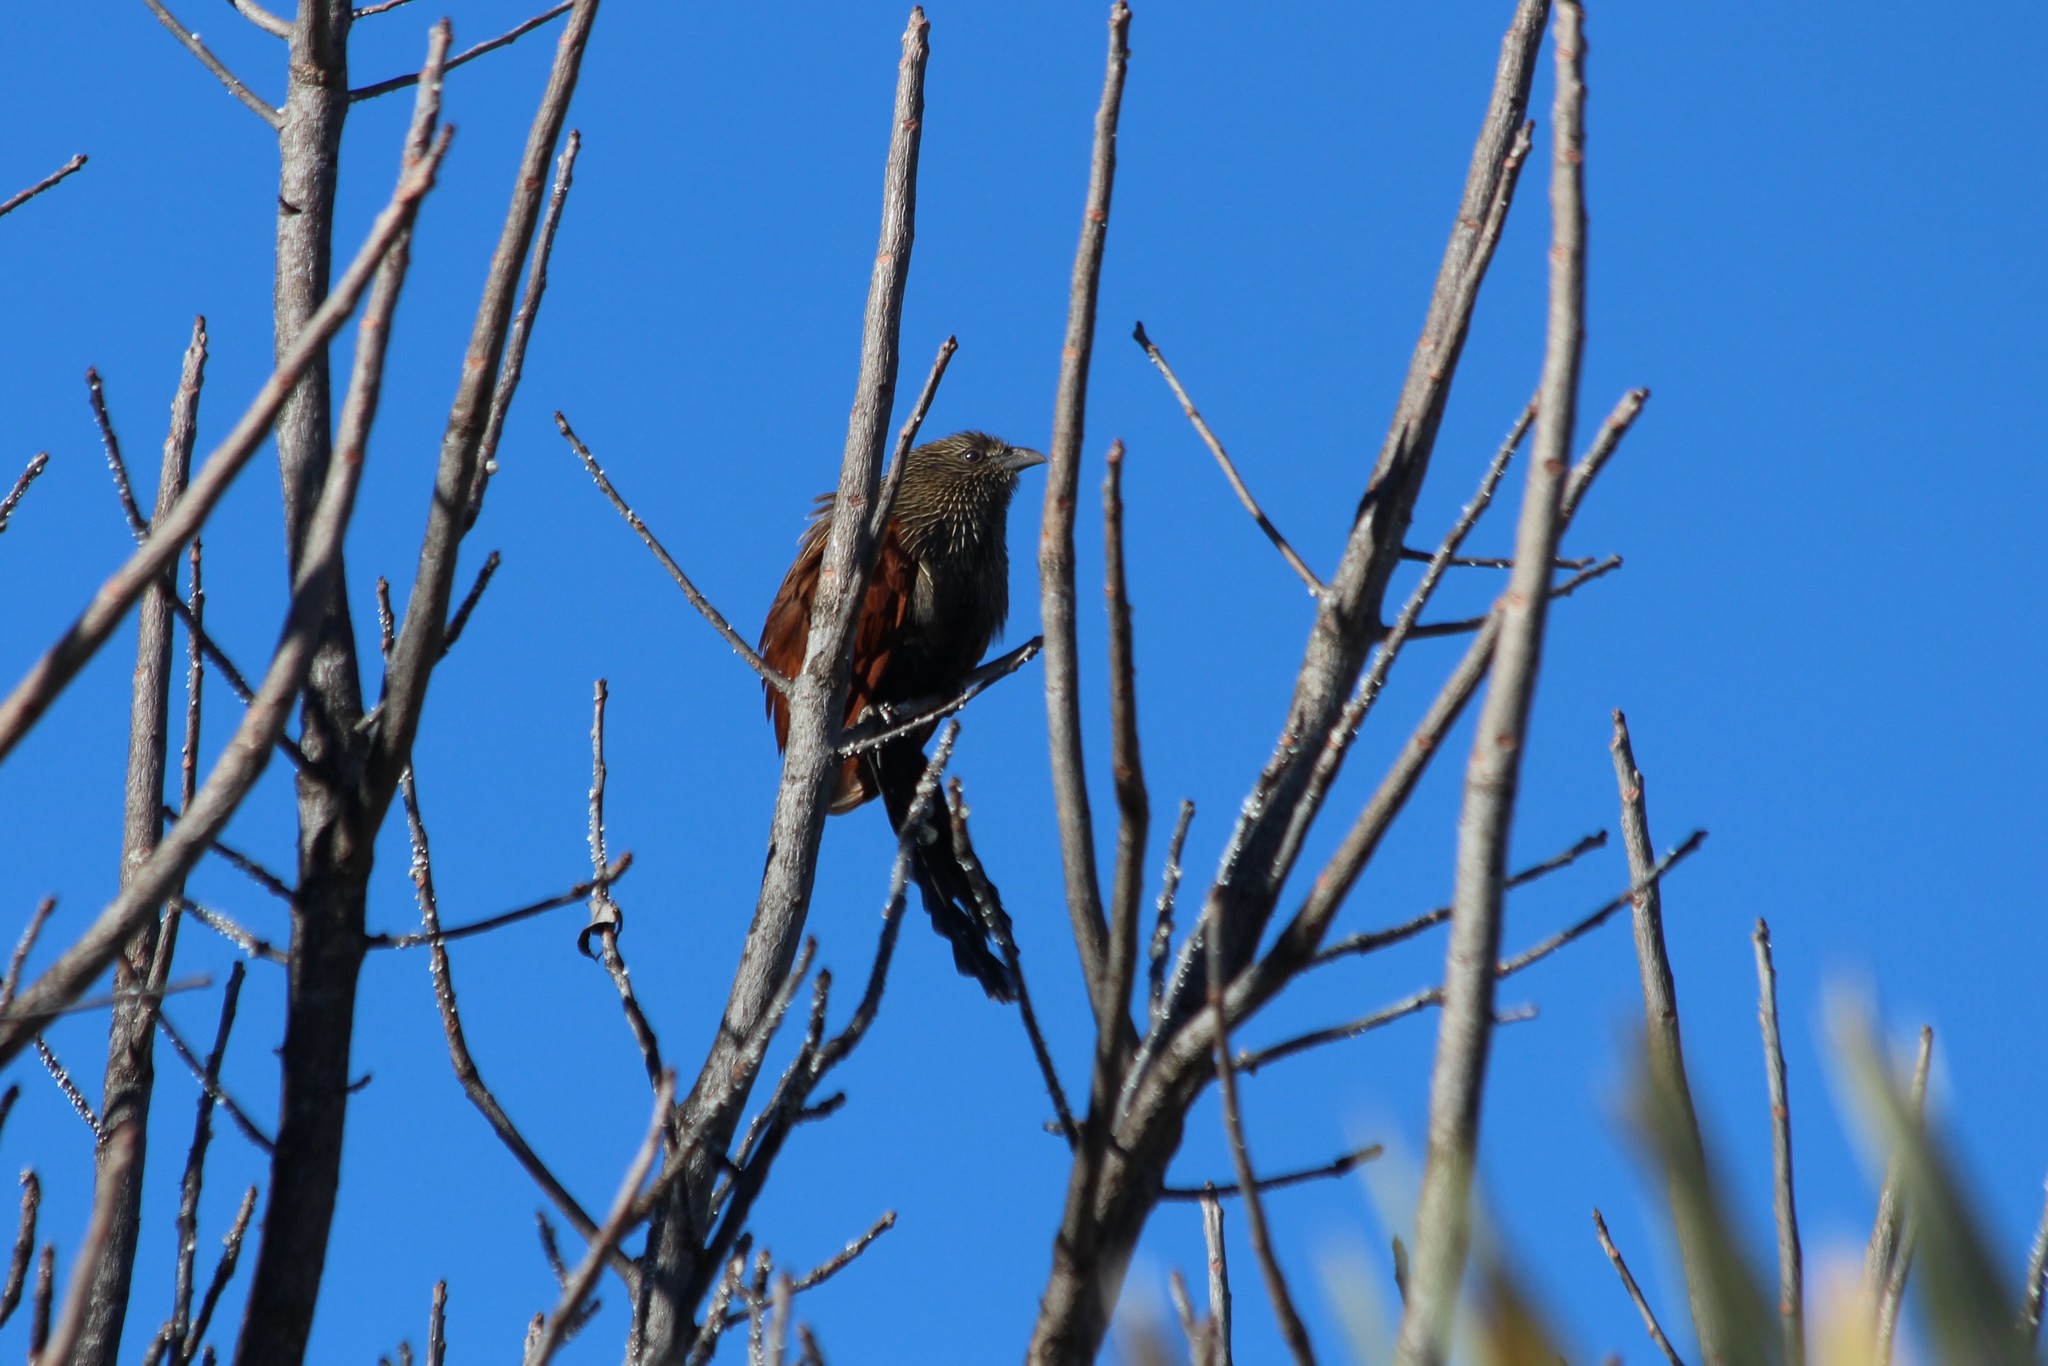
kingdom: Animalia
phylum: Chordata
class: Aves
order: Cuculiformes
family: Cuculidae
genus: Centropus
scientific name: Centropus toulou
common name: Malagasy coucal
